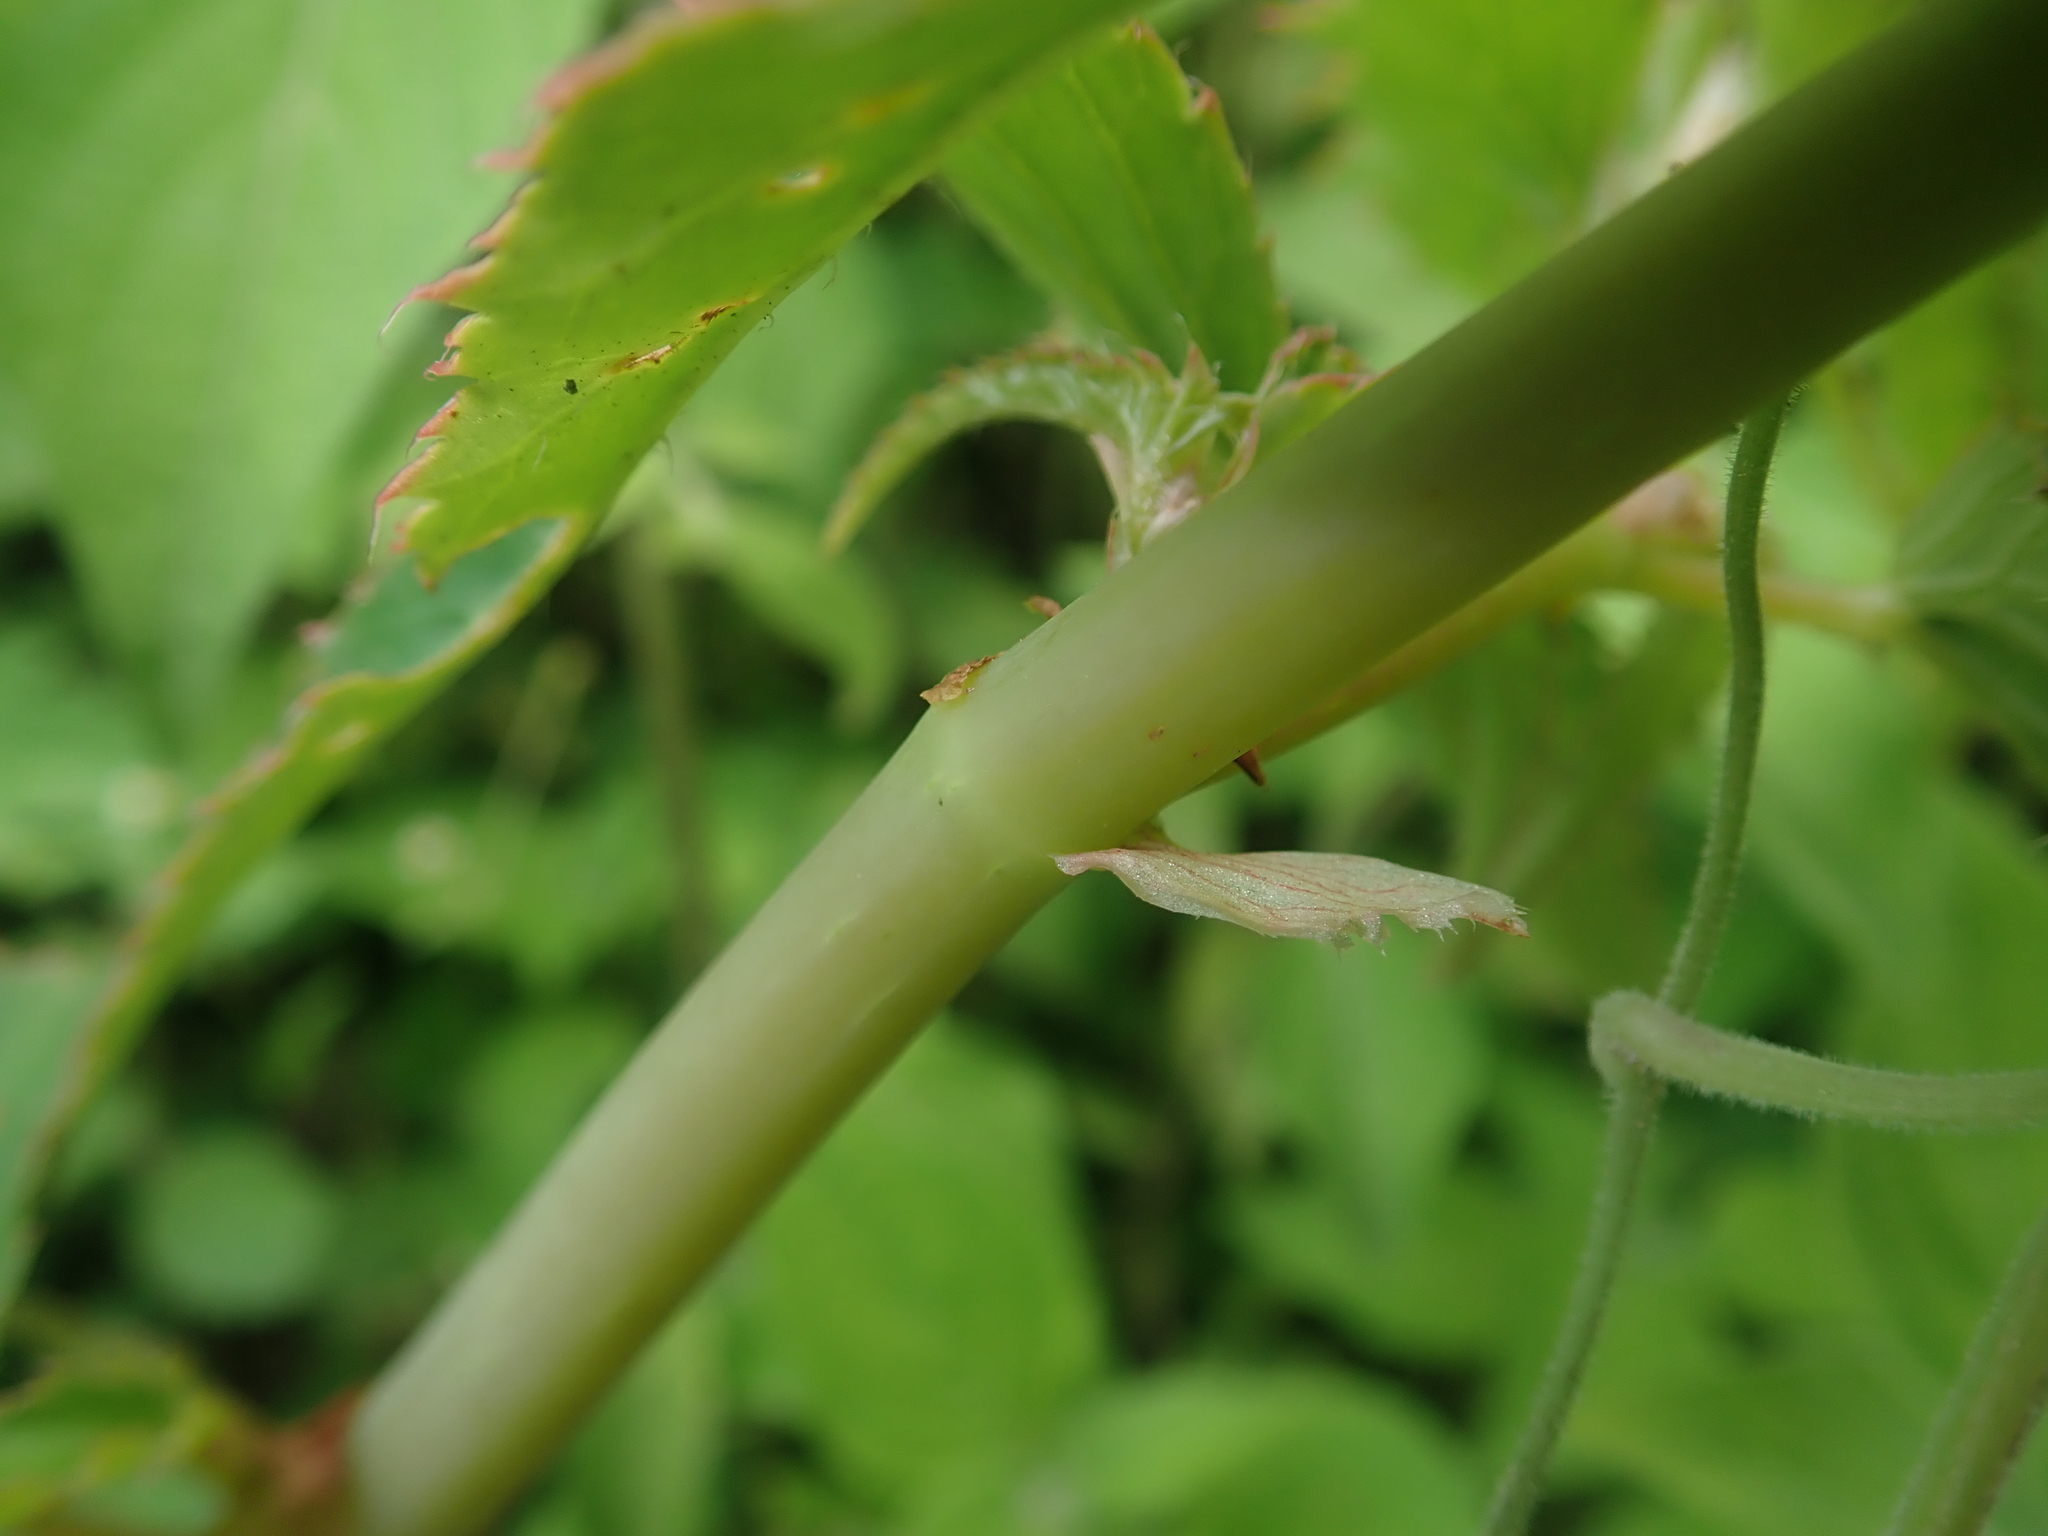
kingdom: Plantae
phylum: Tracheophyta
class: Magnoliopsida
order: Cucurbitales
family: Begoniaceae
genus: Begonia
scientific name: Begonia boliviensis
